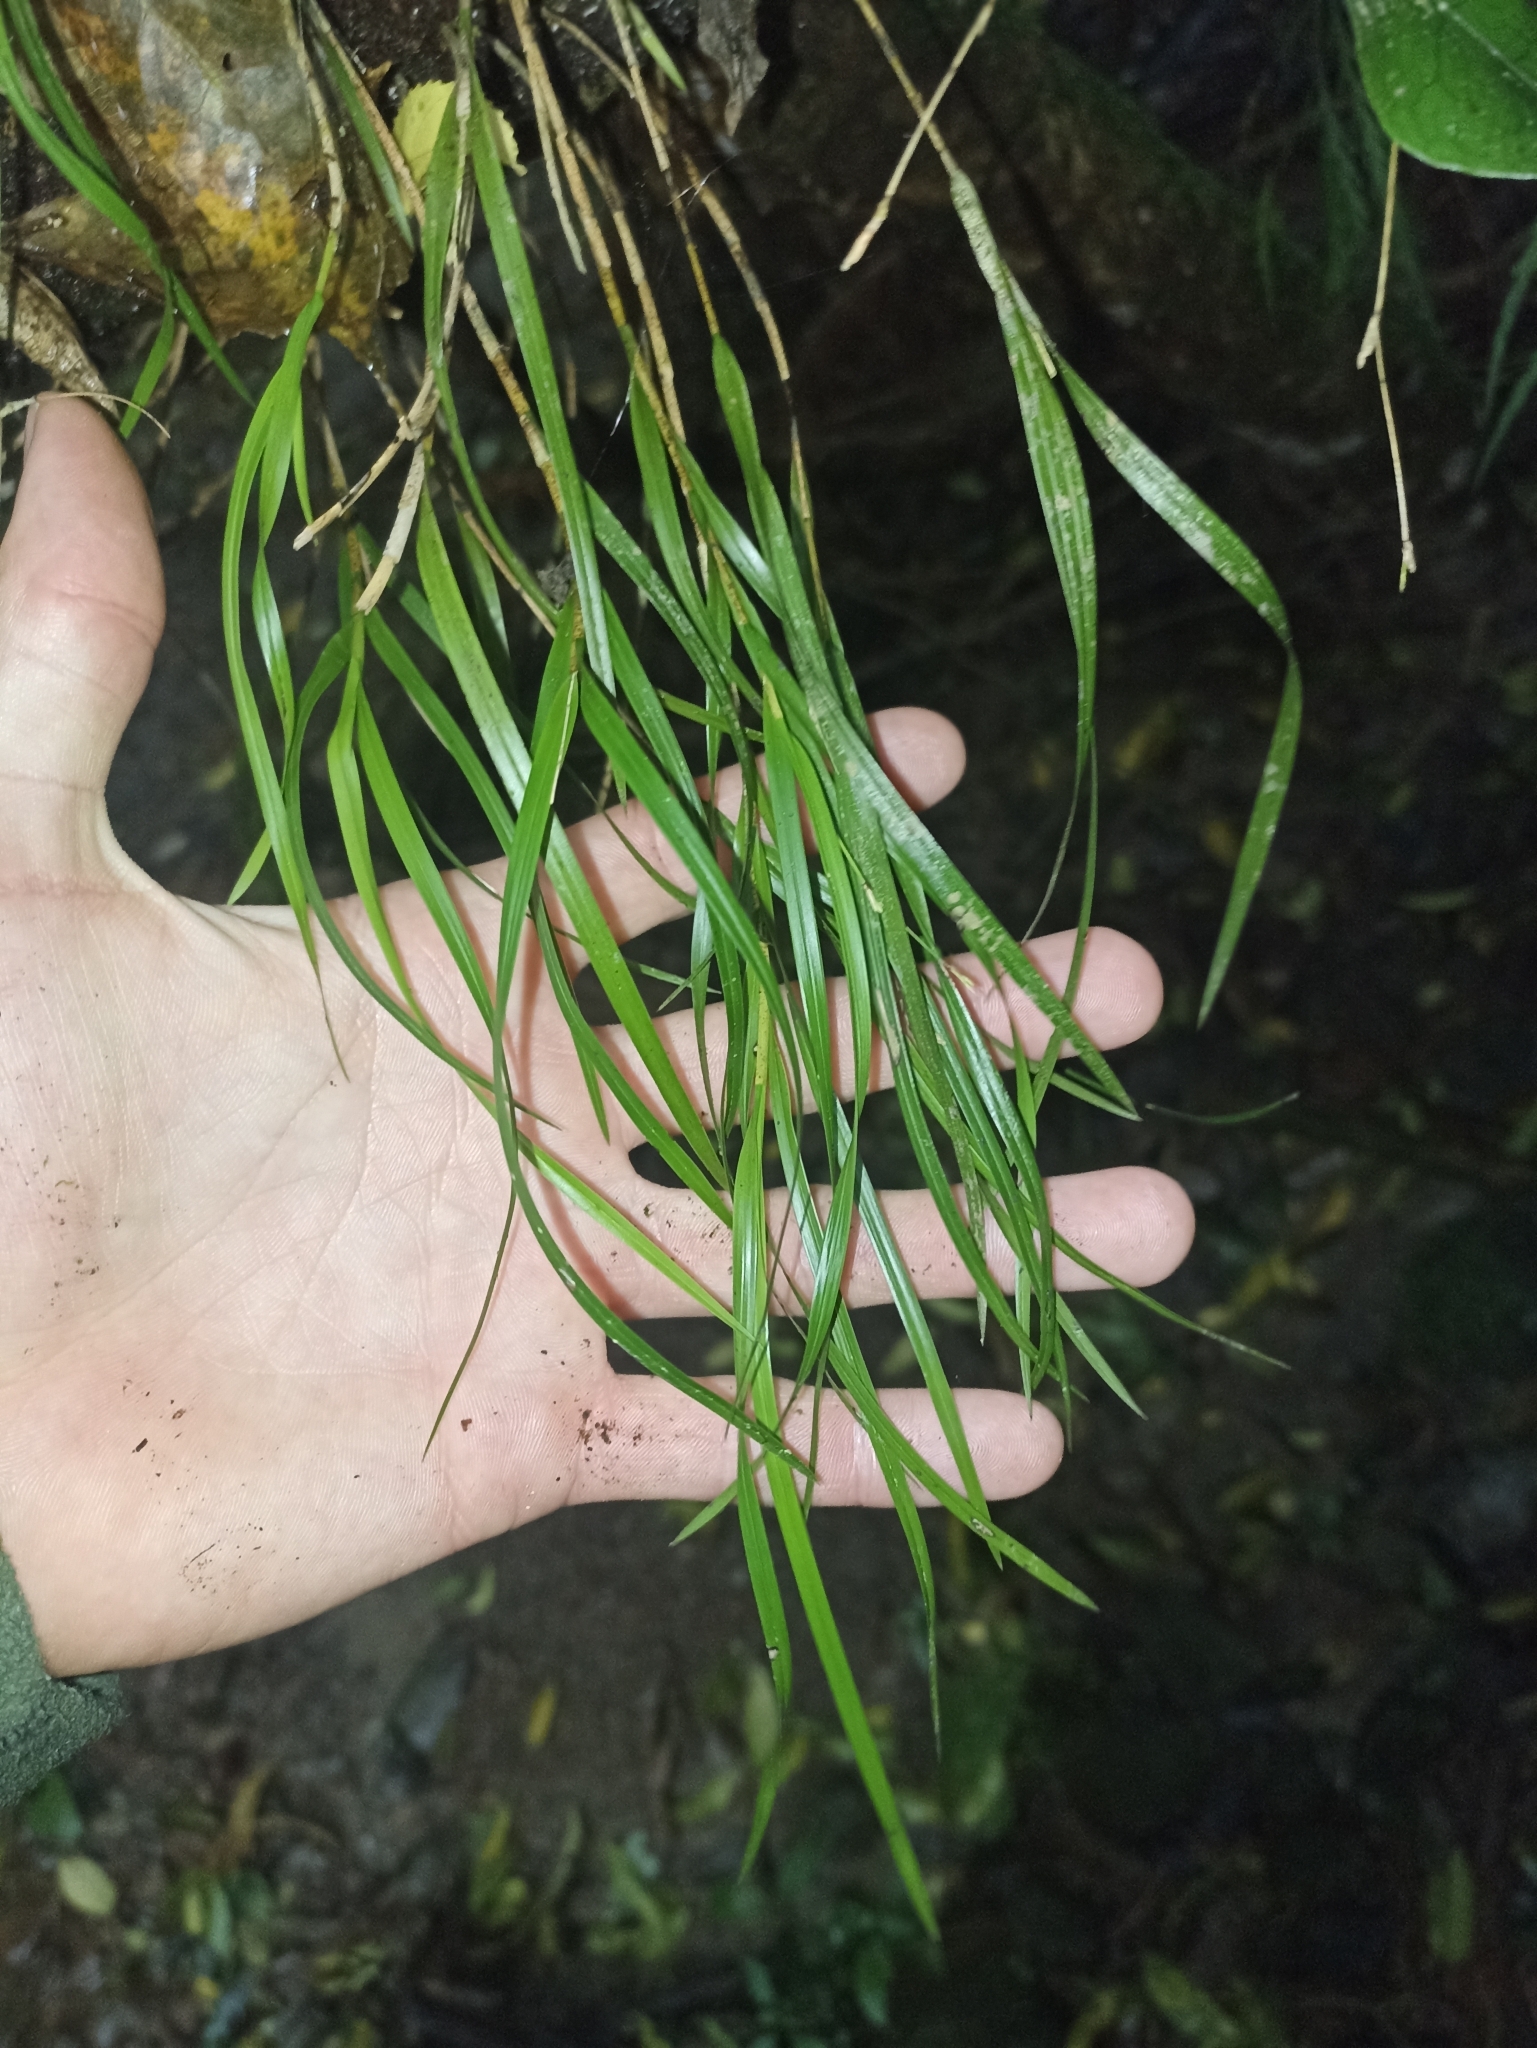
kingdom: Plantae
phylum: Tracheophyta
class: Liliopsida
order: Asparagales
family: Orchidaceae
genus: Earina
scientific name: Earina mucronata
